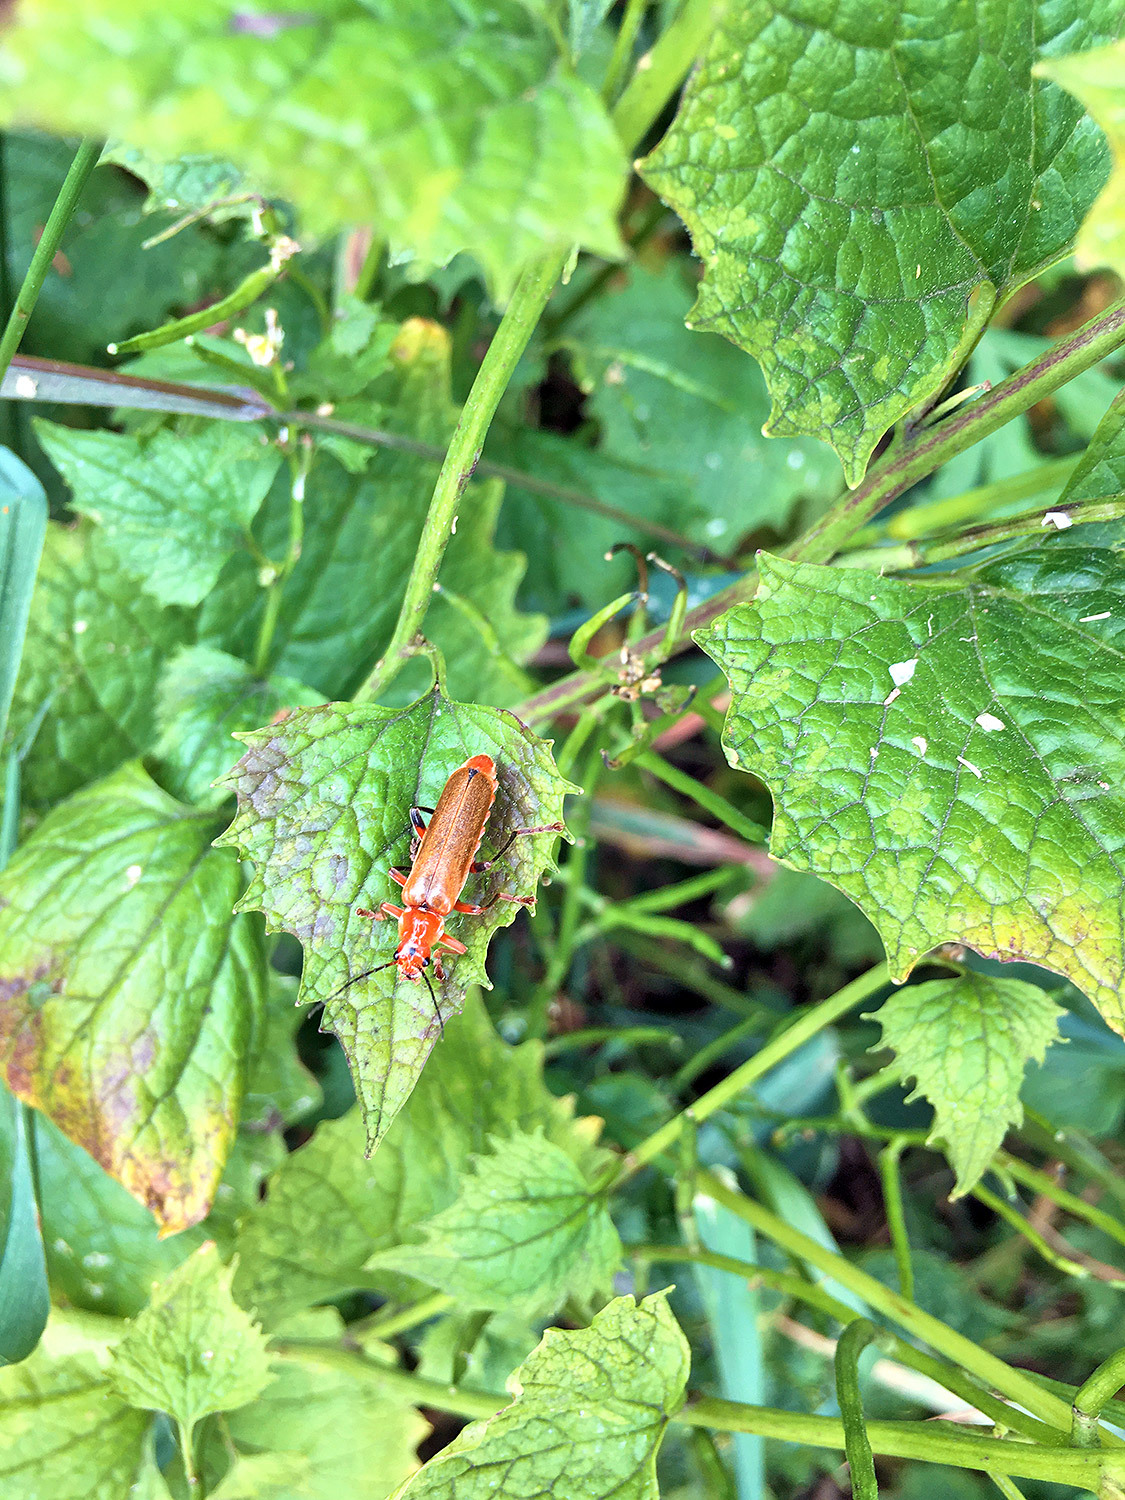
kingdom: Animalia
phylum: Arthropoda
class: Insecta
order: Coleoptera
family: Cantharidae
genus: Cantharis
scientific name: Cantharis livida
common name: Livid soldier beetle
